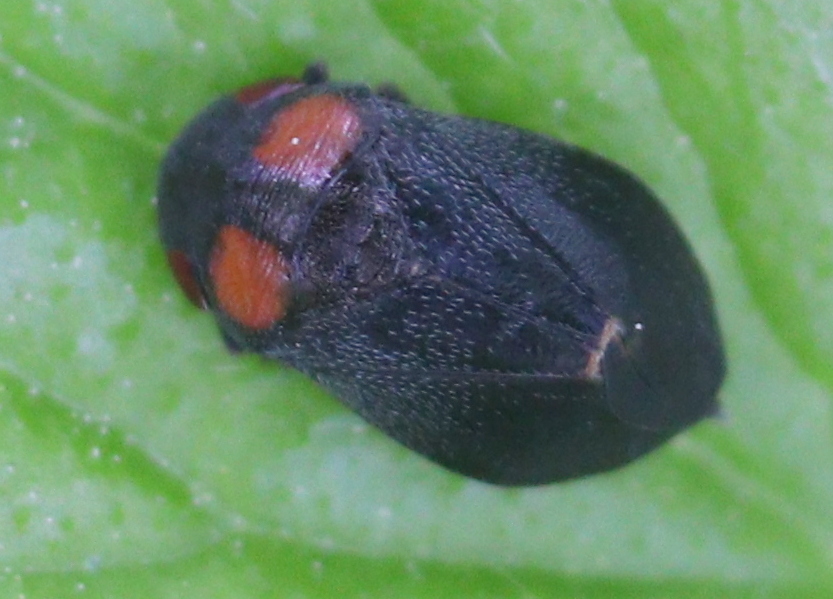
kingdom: Animalia
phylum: Arthropoda
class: Insecta
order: Hemiptera
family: Cicadellidae
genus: Penthimia
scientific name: Penthimia nigra
